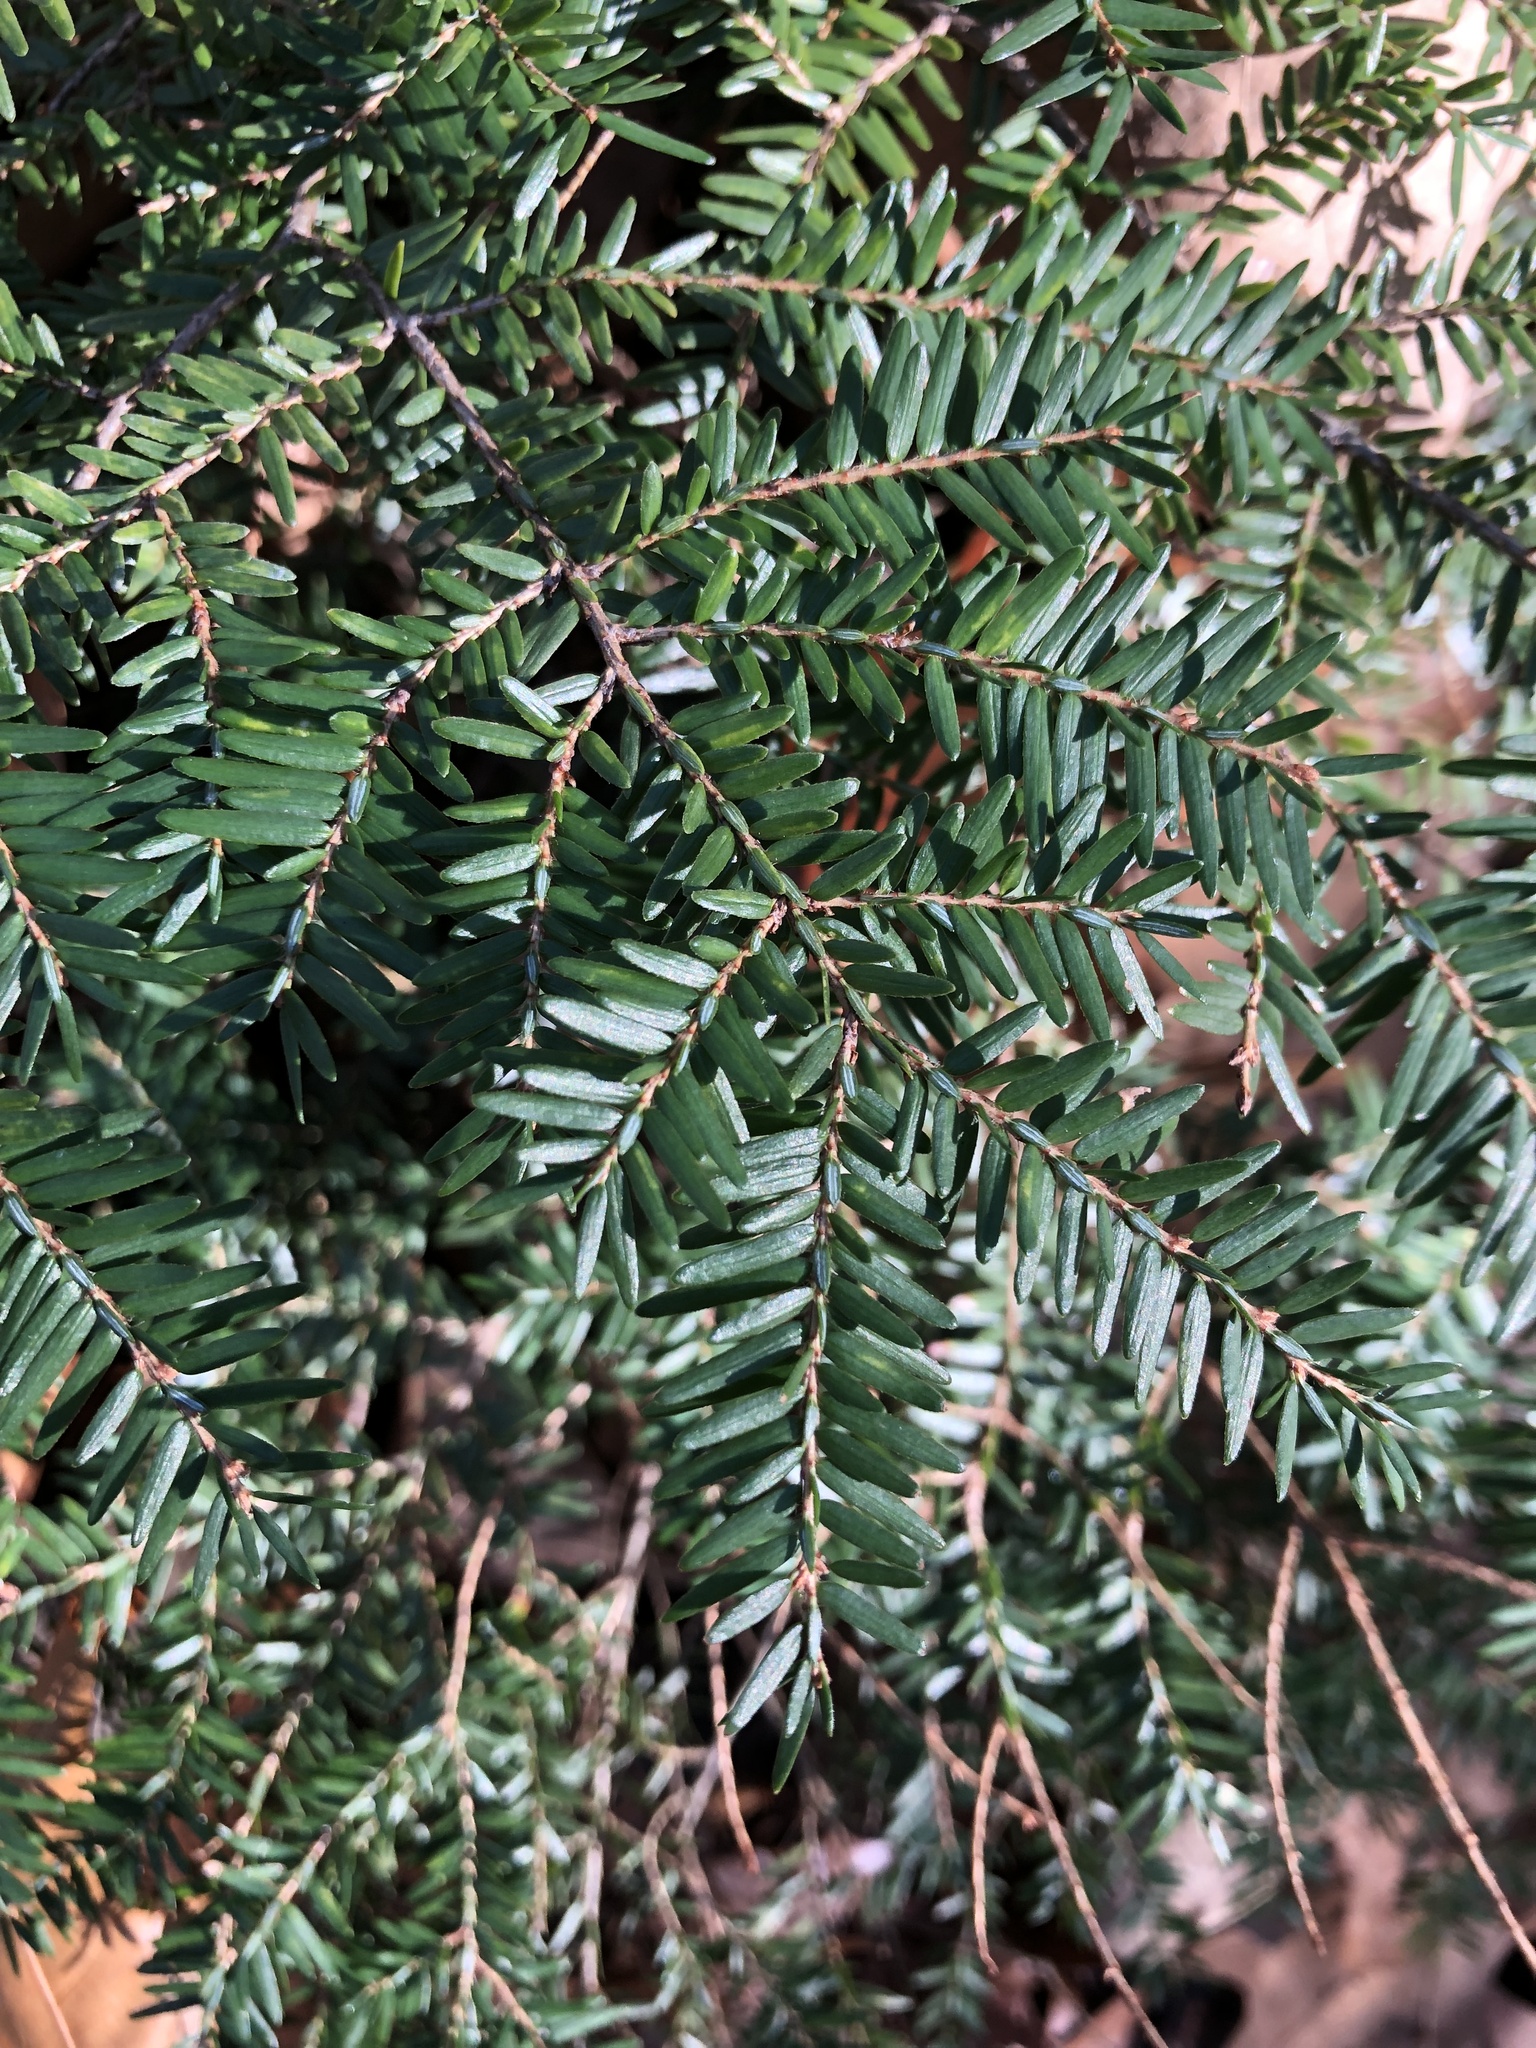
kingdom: Plantae
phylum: Tracheophyta
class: Pinopsida
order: Pinales
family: Pinaceae
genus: Tsuga
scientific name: Tsuga canadensis
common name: Eastern hemlock
